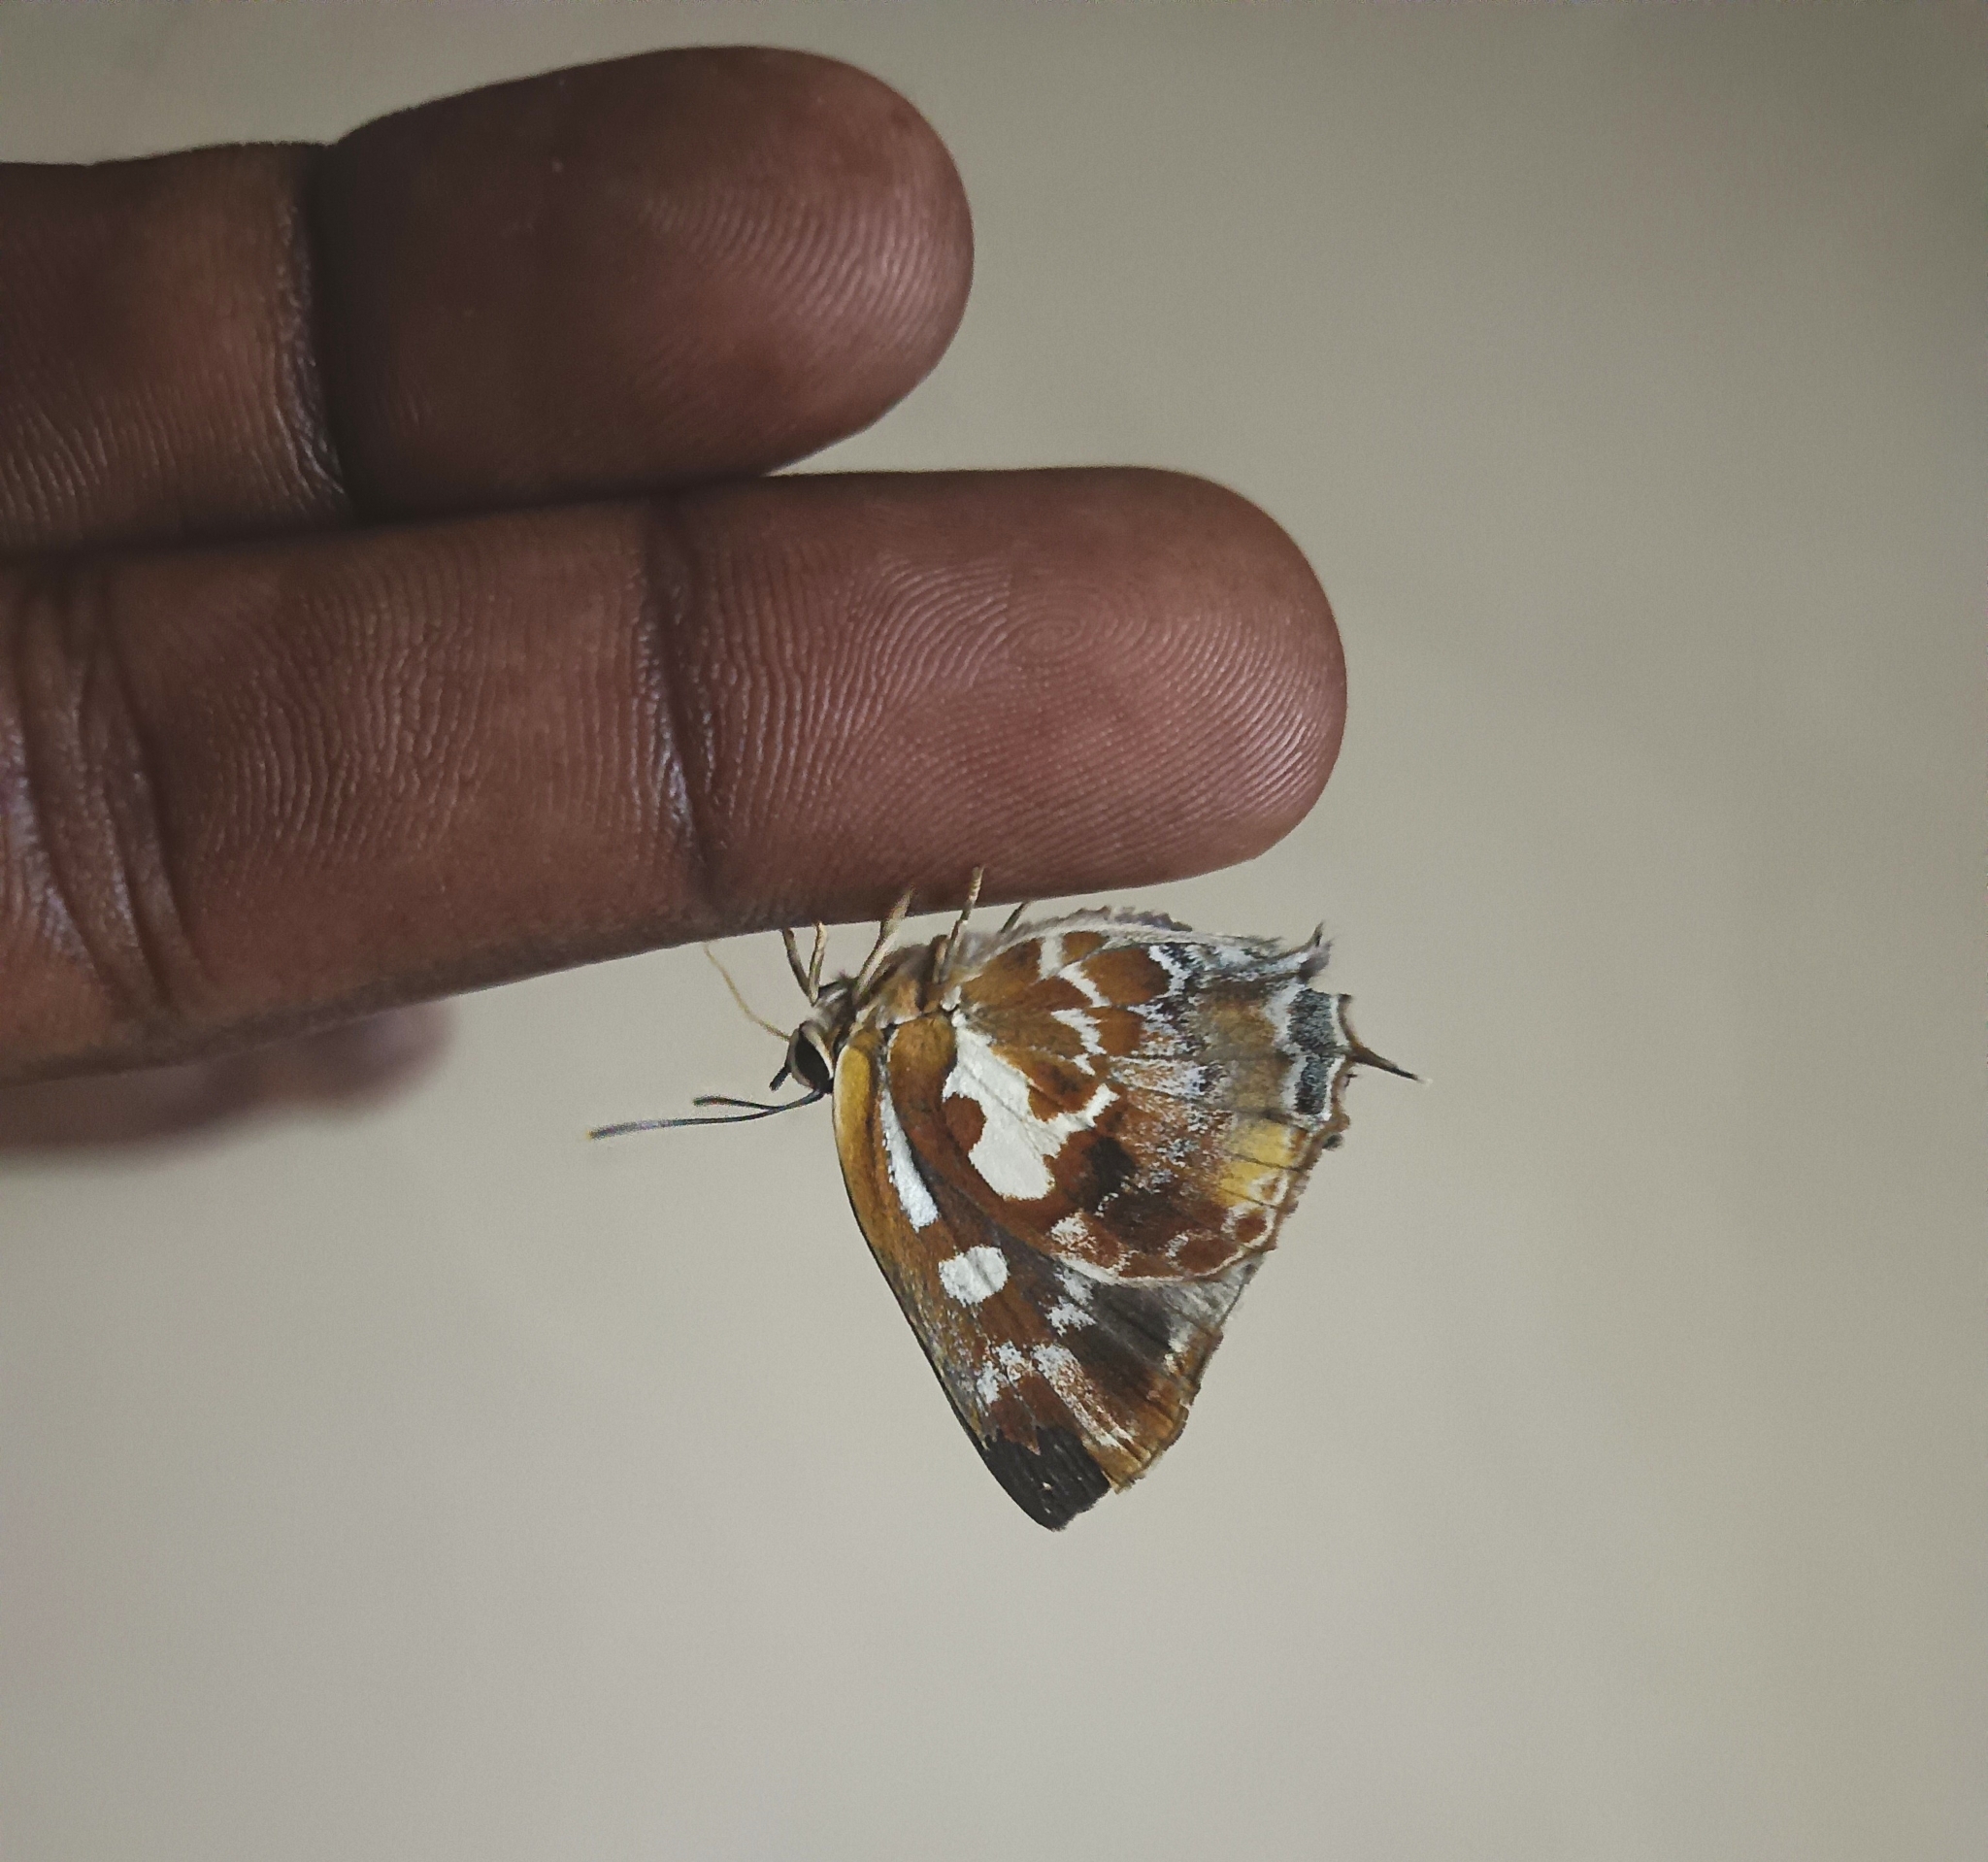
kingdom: Animalia
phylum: Arthropoda
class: Insecta
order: Lepidoptera
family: Lycaenidae
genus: Iraota
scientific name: Iraota timoleon
